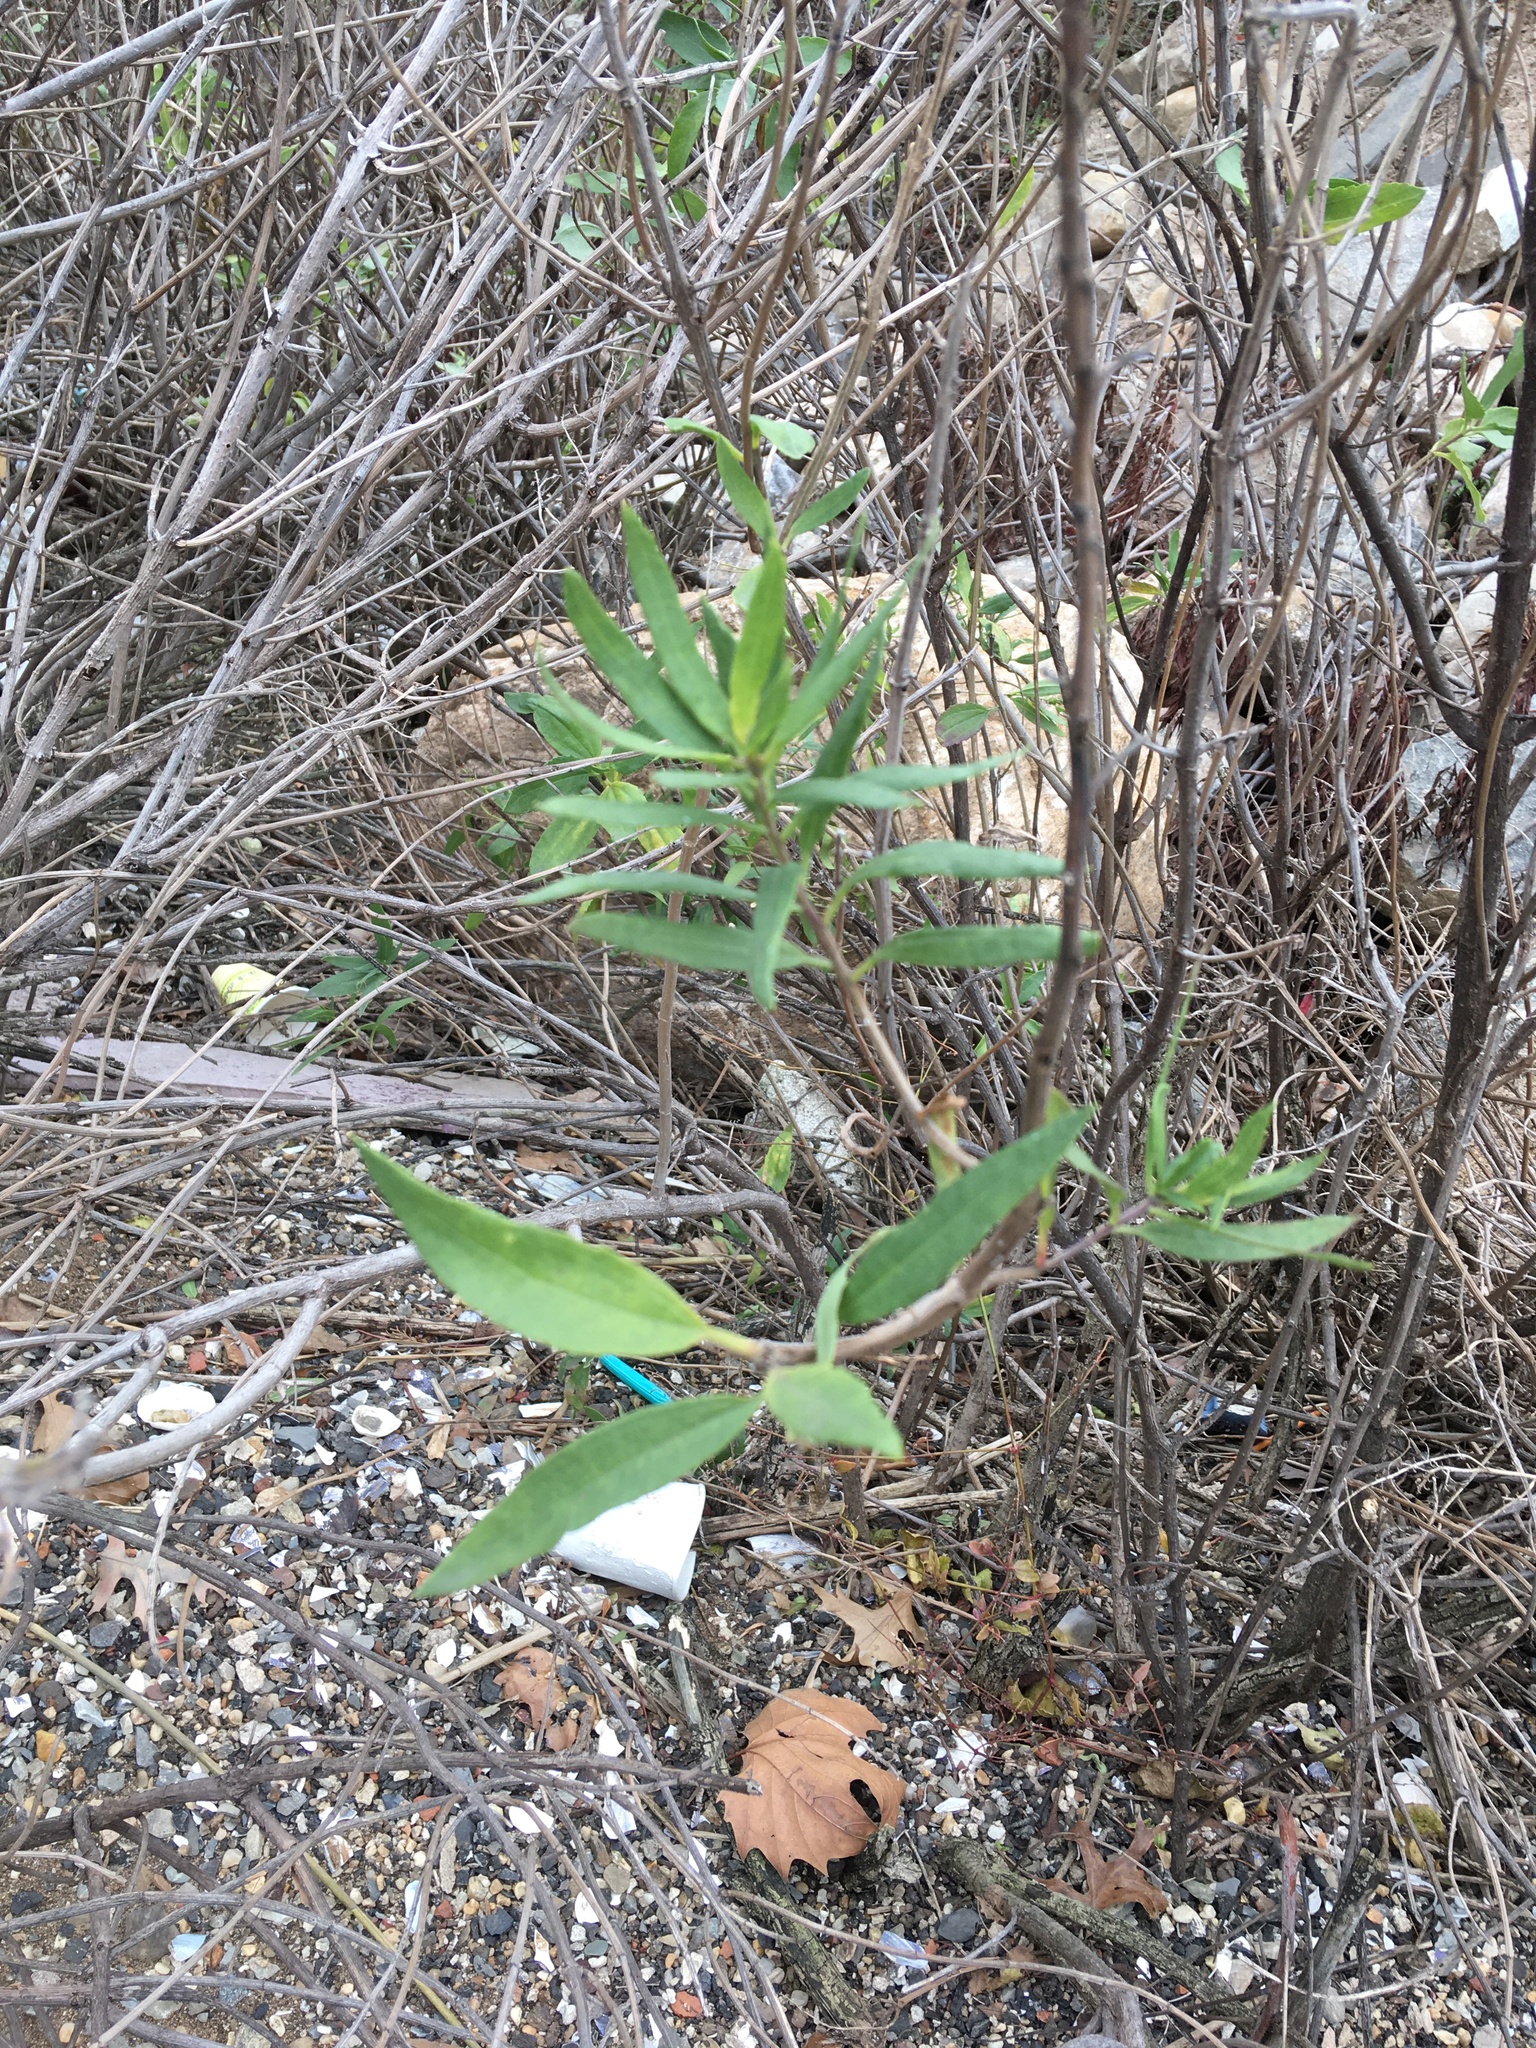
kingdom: Plantae
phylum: Tracheophyta
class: Magnoliopsida
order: Asterales
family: Asteraceae
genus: Iva
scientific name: Iva frutescens
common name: Big-leaved marsh-elder
